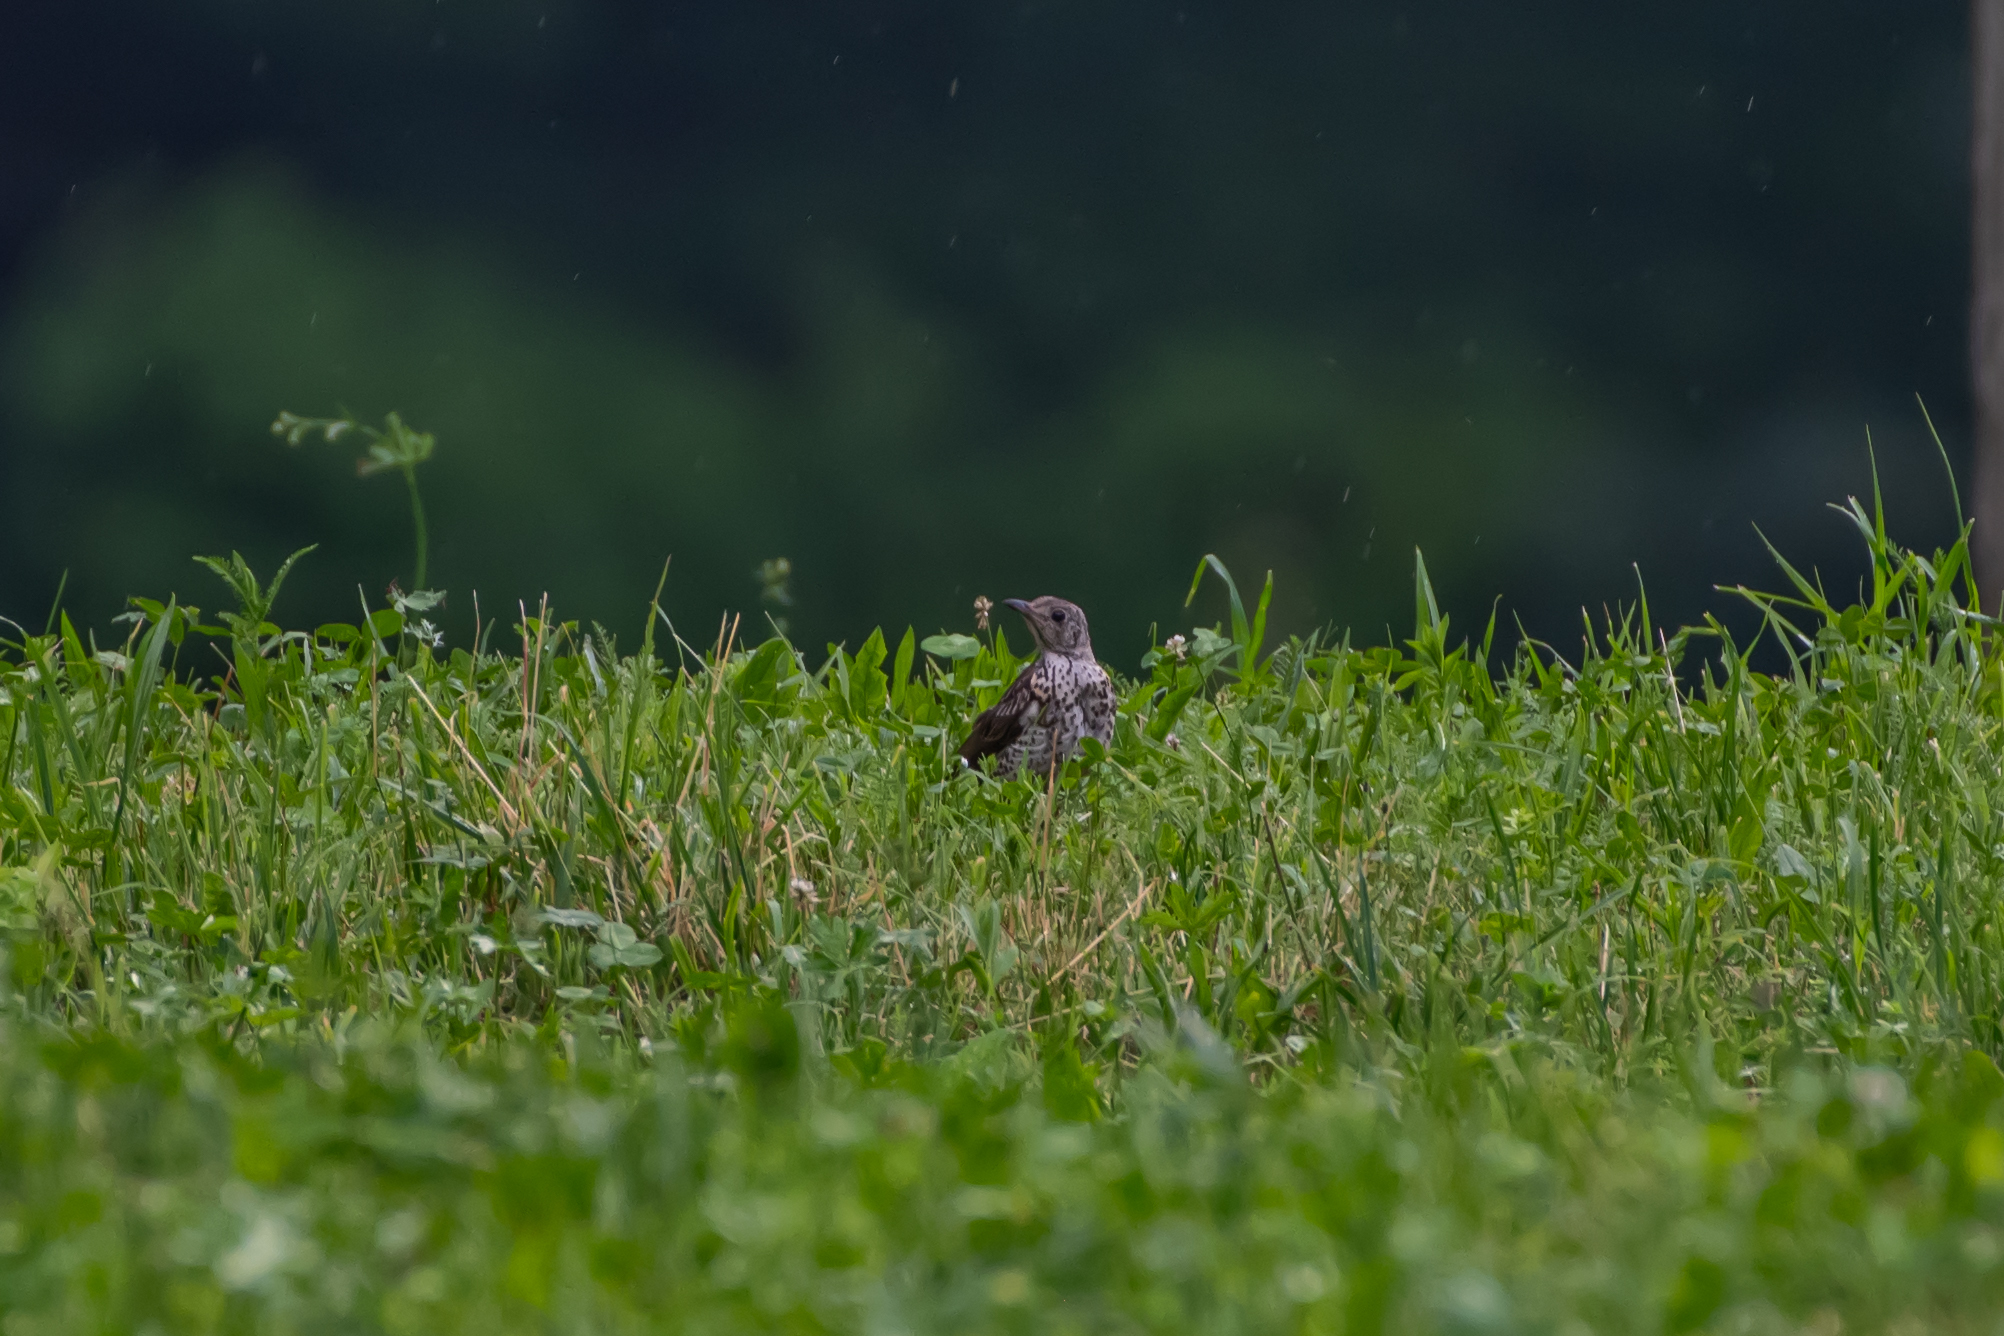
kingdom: Animalia
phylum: Chordata
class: Aves
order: Passeriformes
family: Turdidae
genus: Turdus
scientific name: Turdus viscivorus
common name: Mistle thrush
